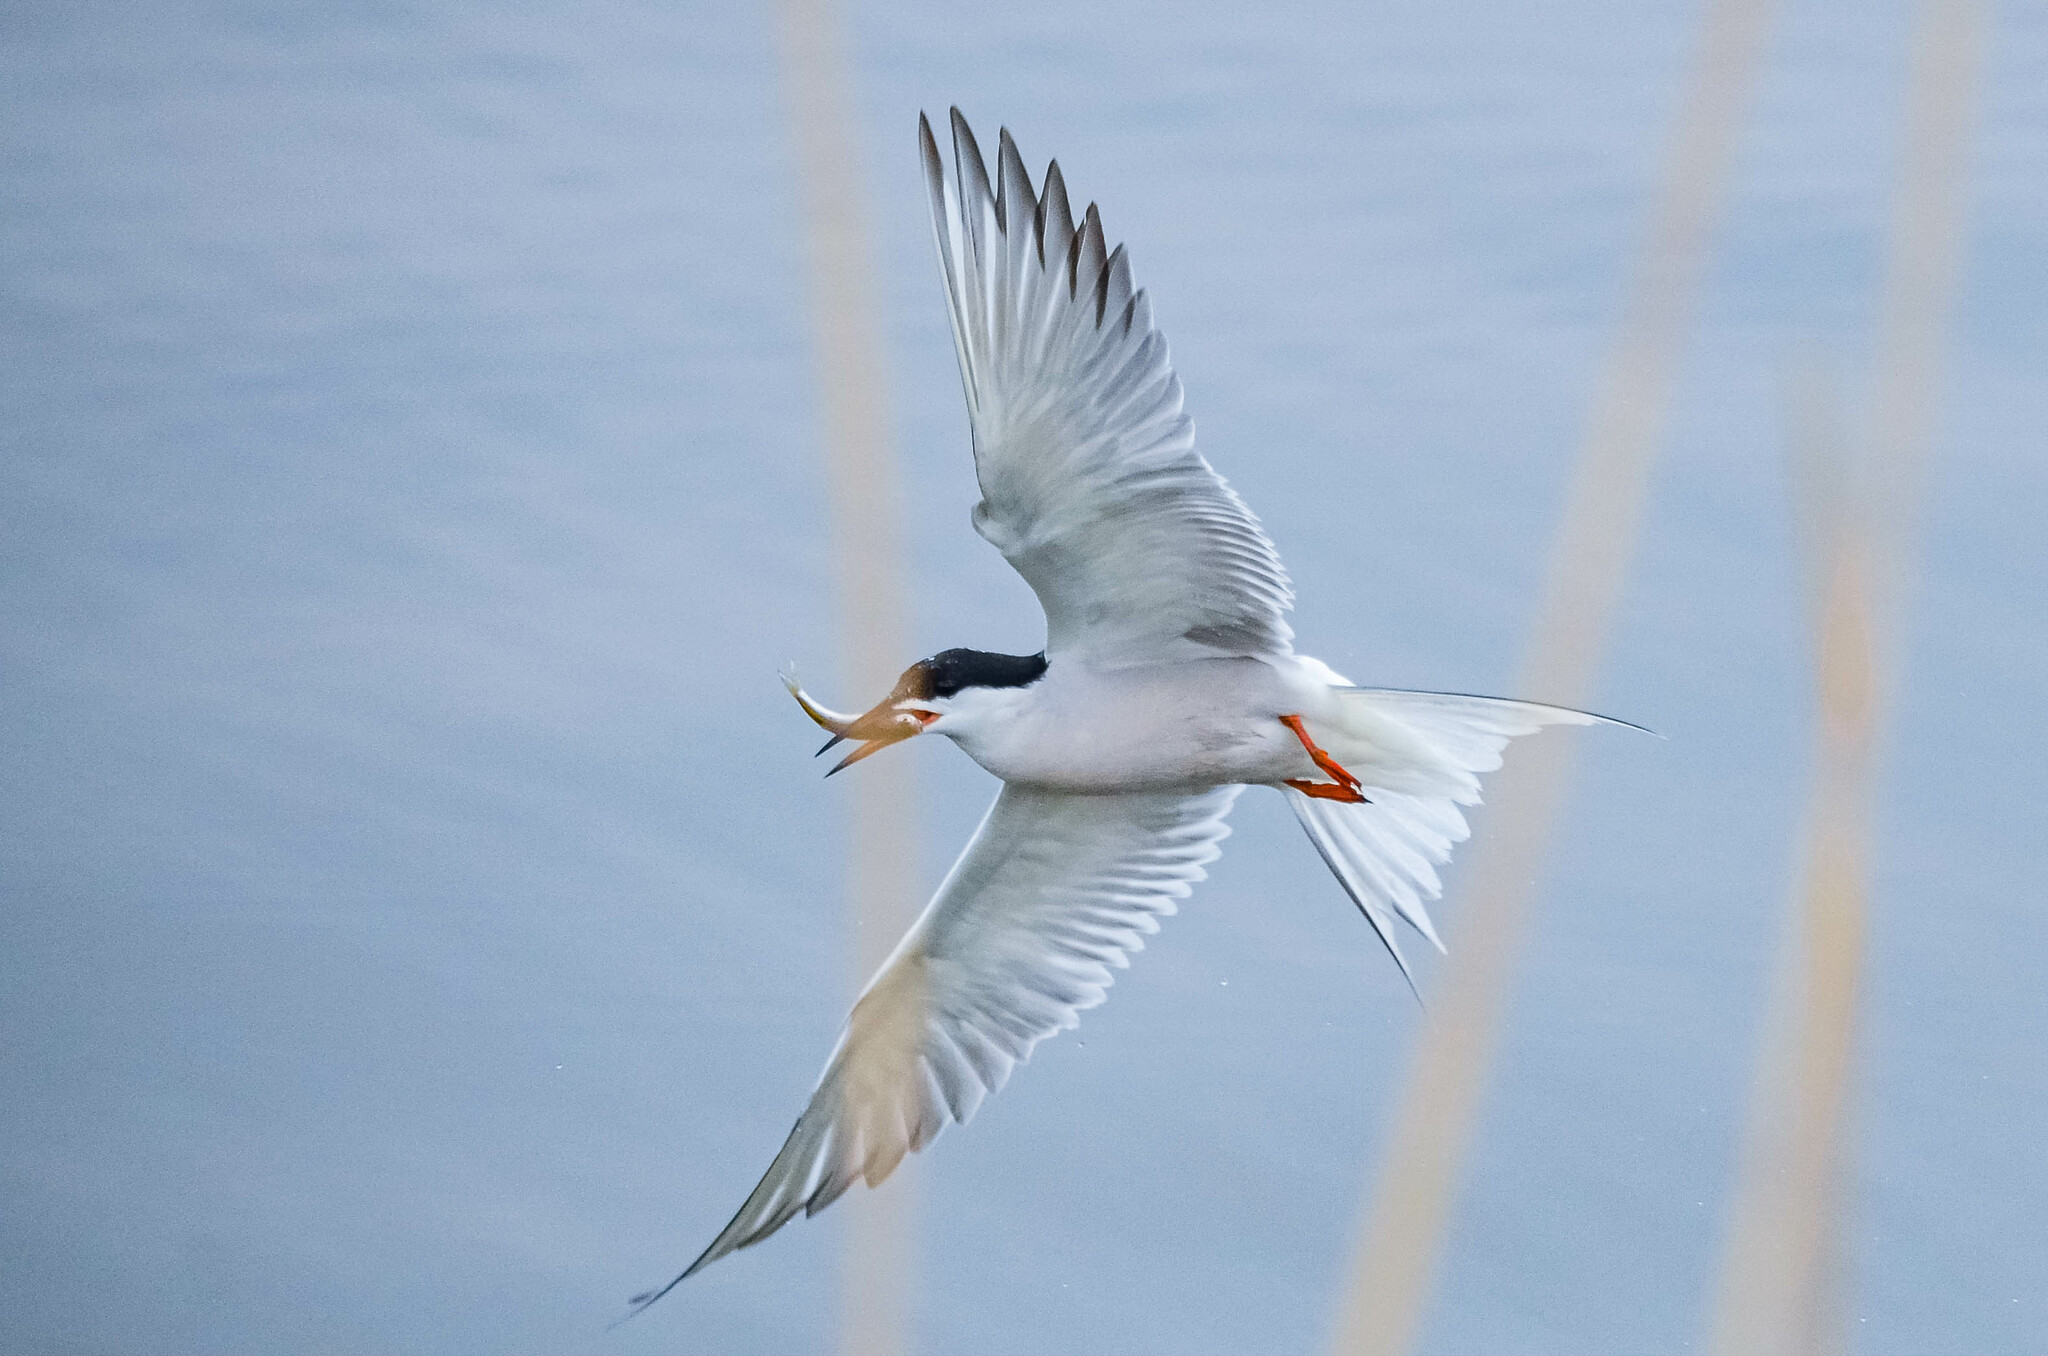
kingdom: Animalia
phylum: Chordata
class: Aves
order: Charadriiformes
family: Laridae
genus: Sterna
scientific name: Sterna hirundo
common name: Common tern
